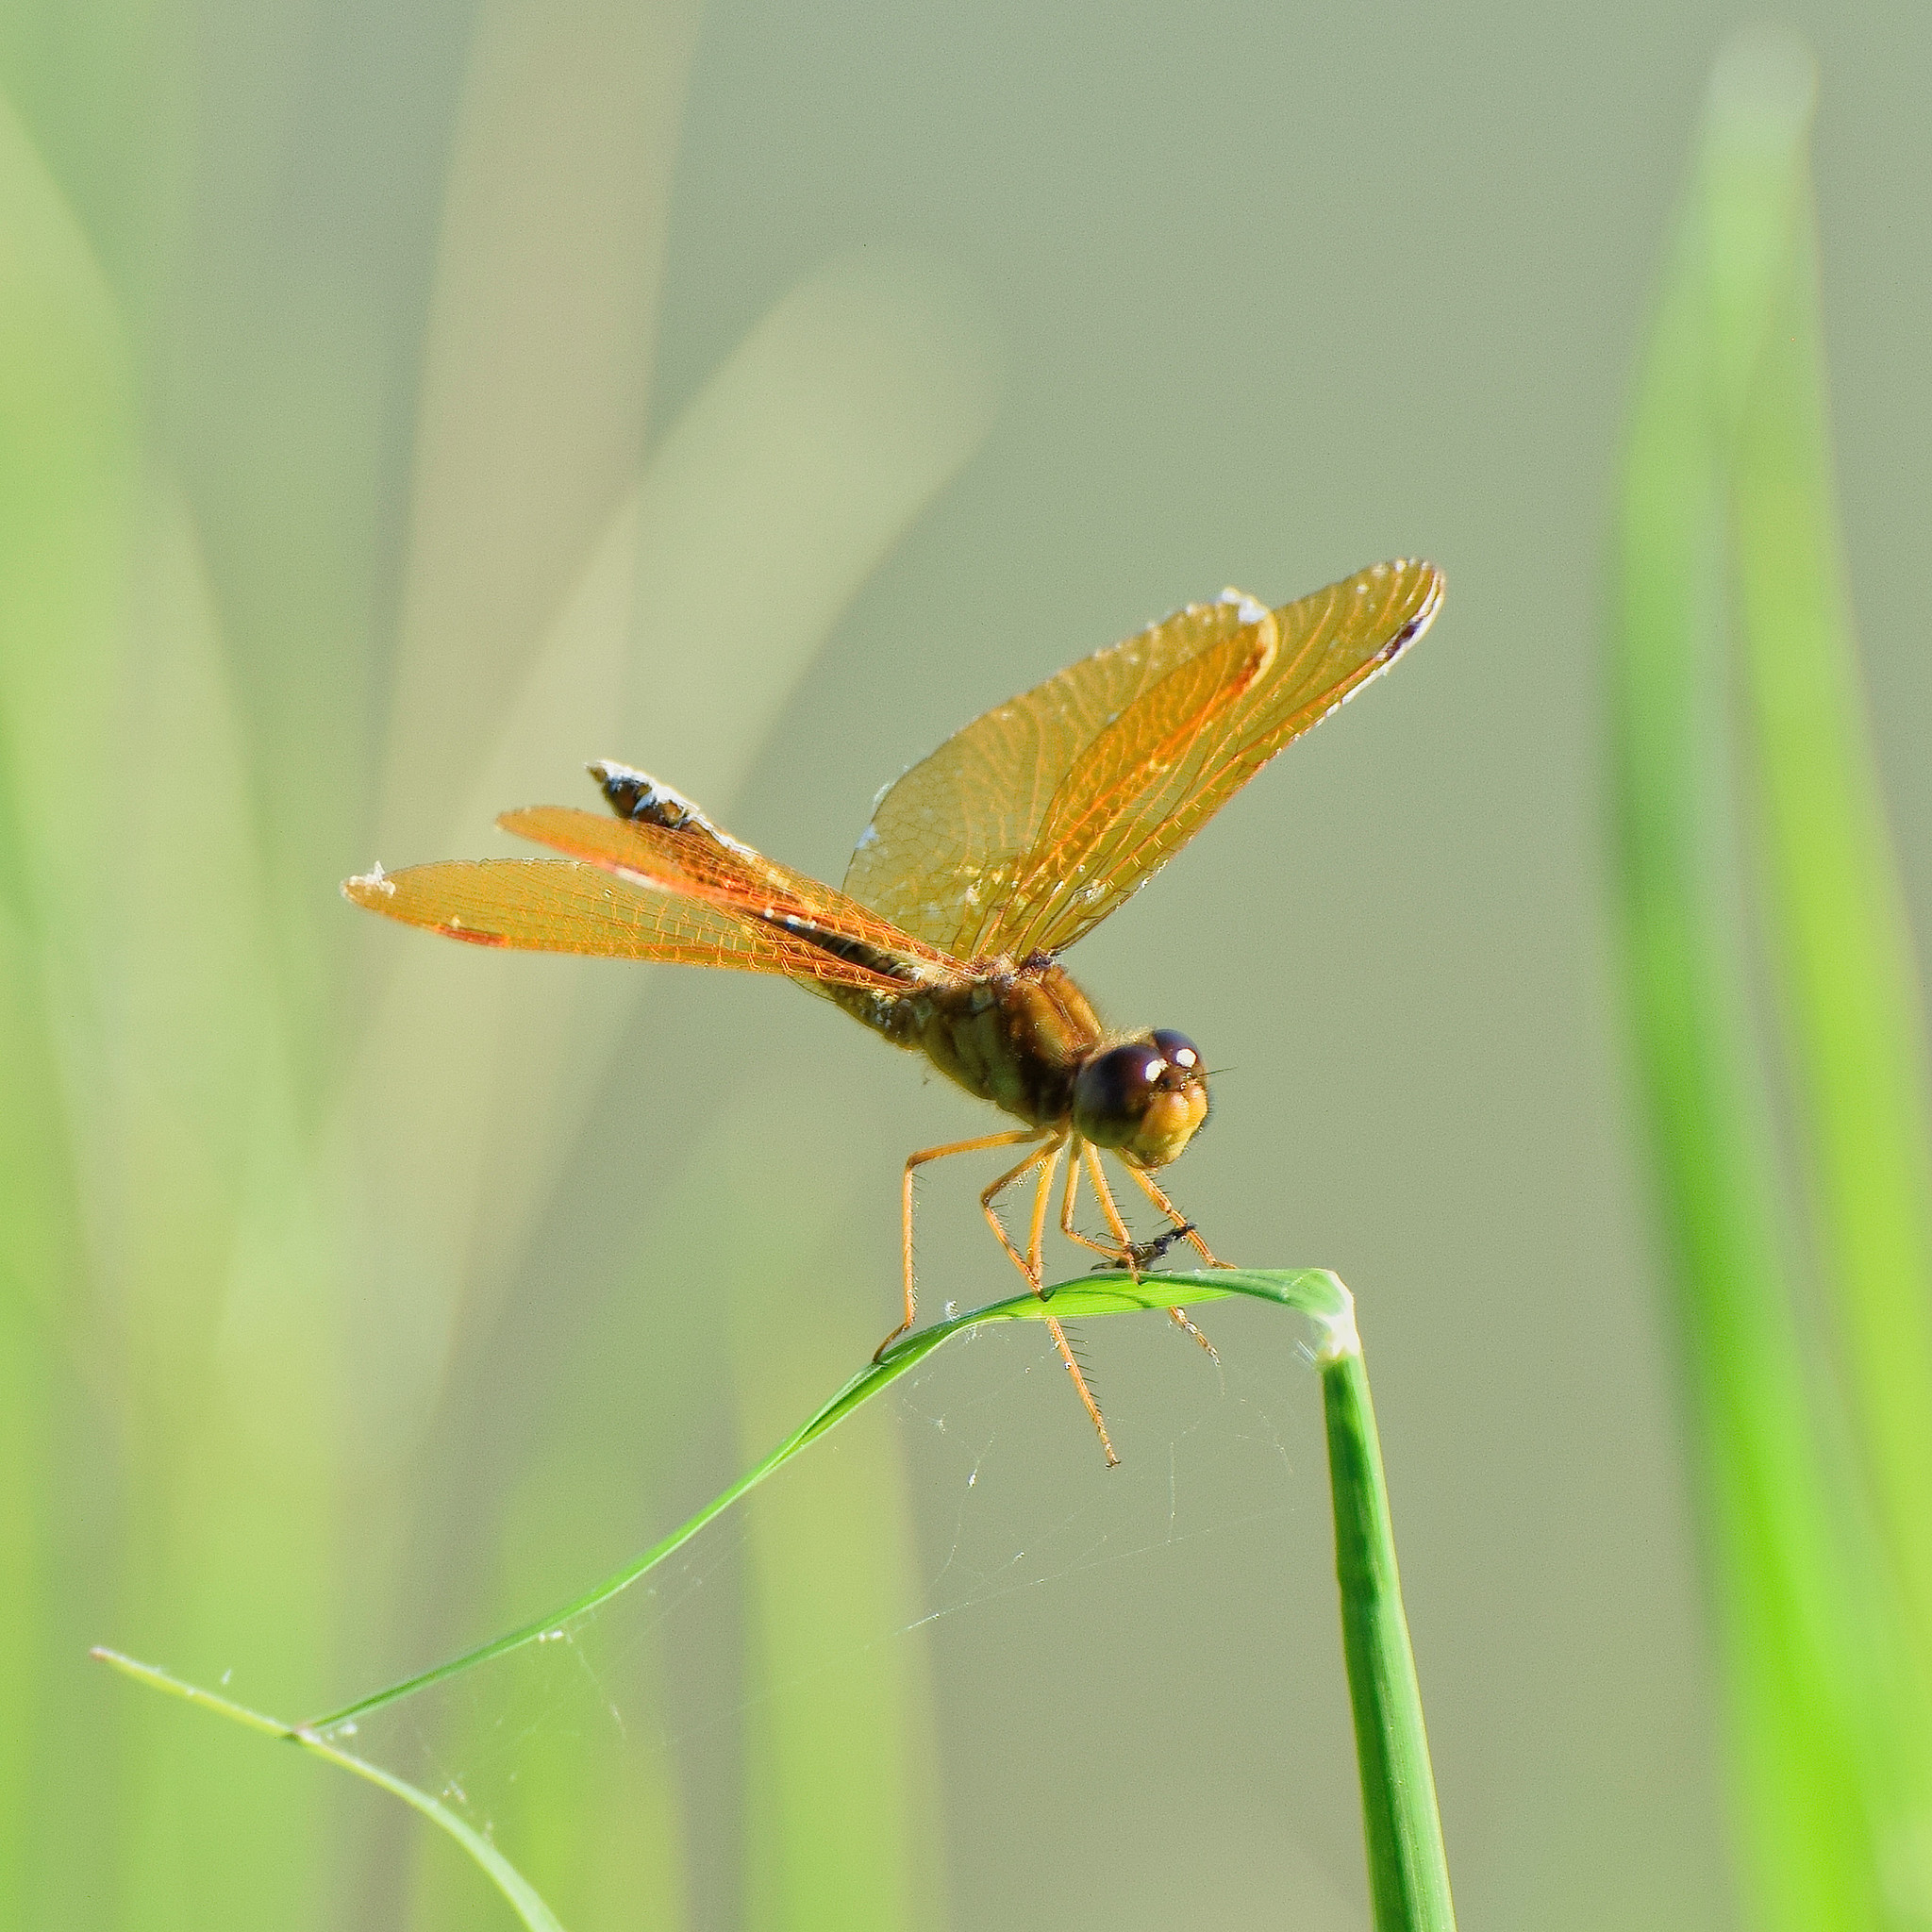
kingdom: Animalia
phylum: Arthropoda
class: Insecta
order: Odonata
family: Libellulidae
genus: Perithemis
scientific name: Perithemis intensa
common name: Mexican amberwing
